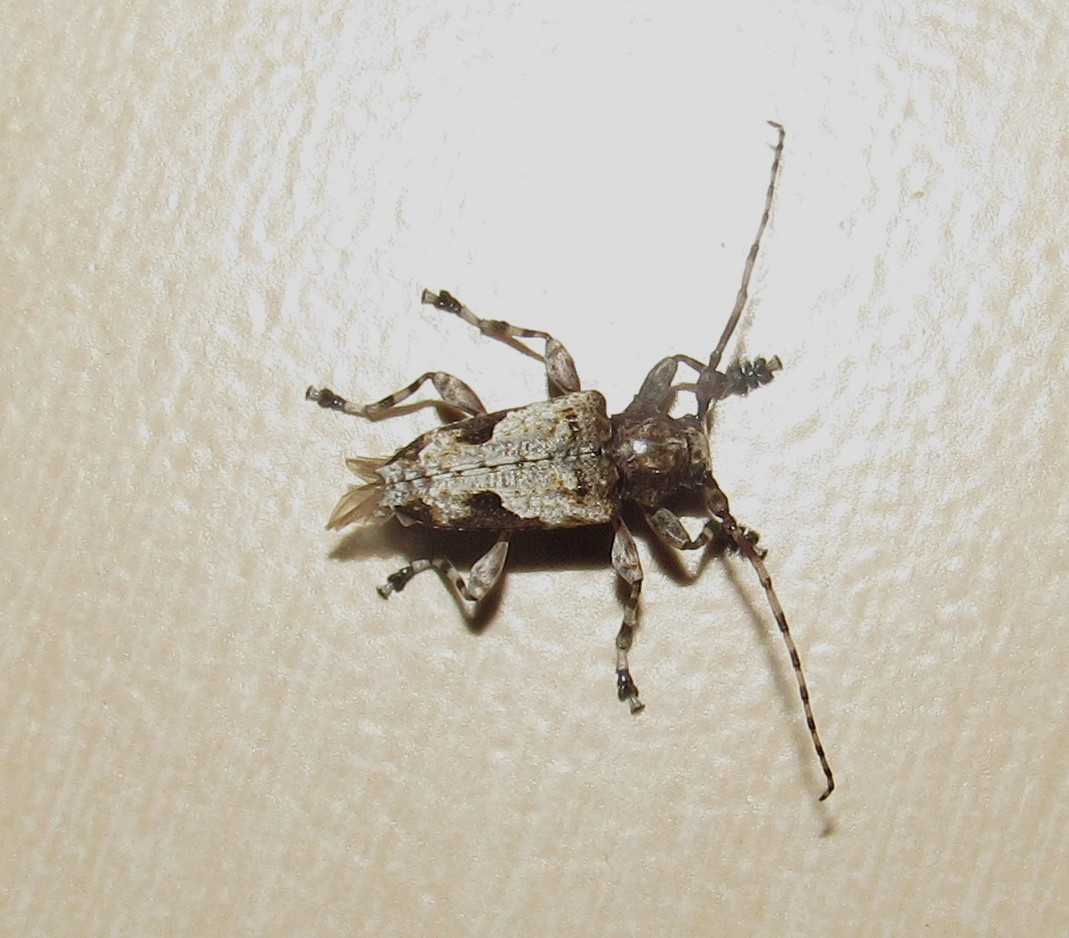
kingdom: Animalia
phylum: Arthropoda
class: Insecta
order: Coleoptera
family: Cerambycidae
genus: Psapharochrus
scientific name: Psapharochrus jaspideus
